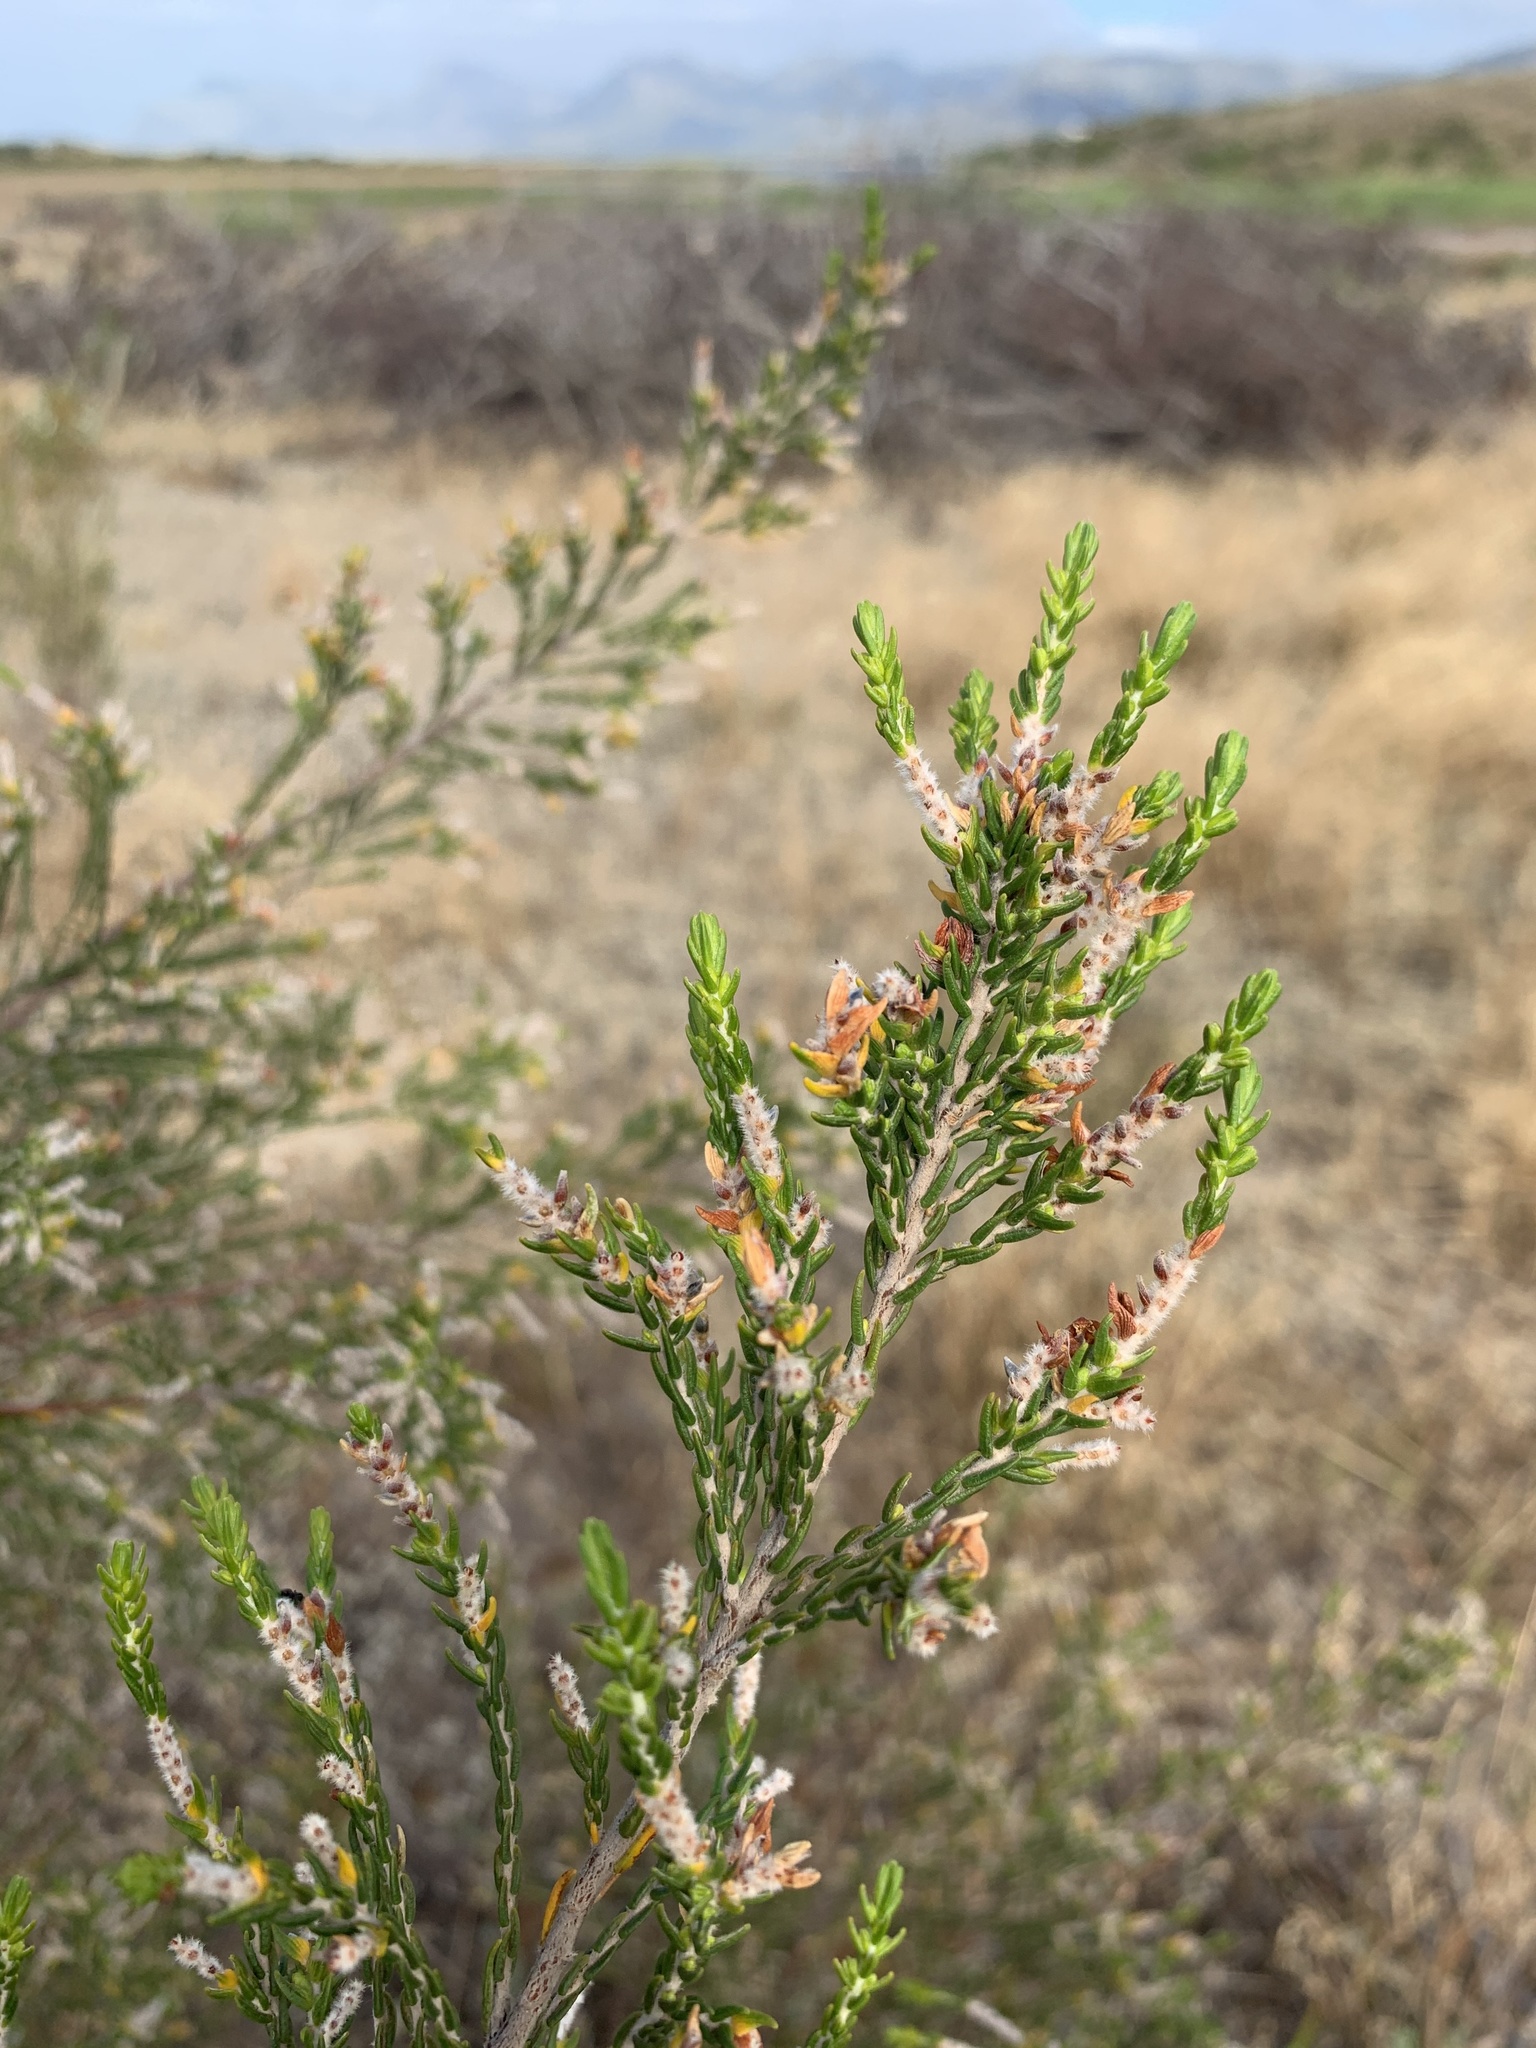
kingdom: Plantae
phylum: Tracheophyta
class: Magnoliopsida
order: Malvales
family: Thymelaeaceae
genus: Passerina
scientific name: Passerina corymbosa
